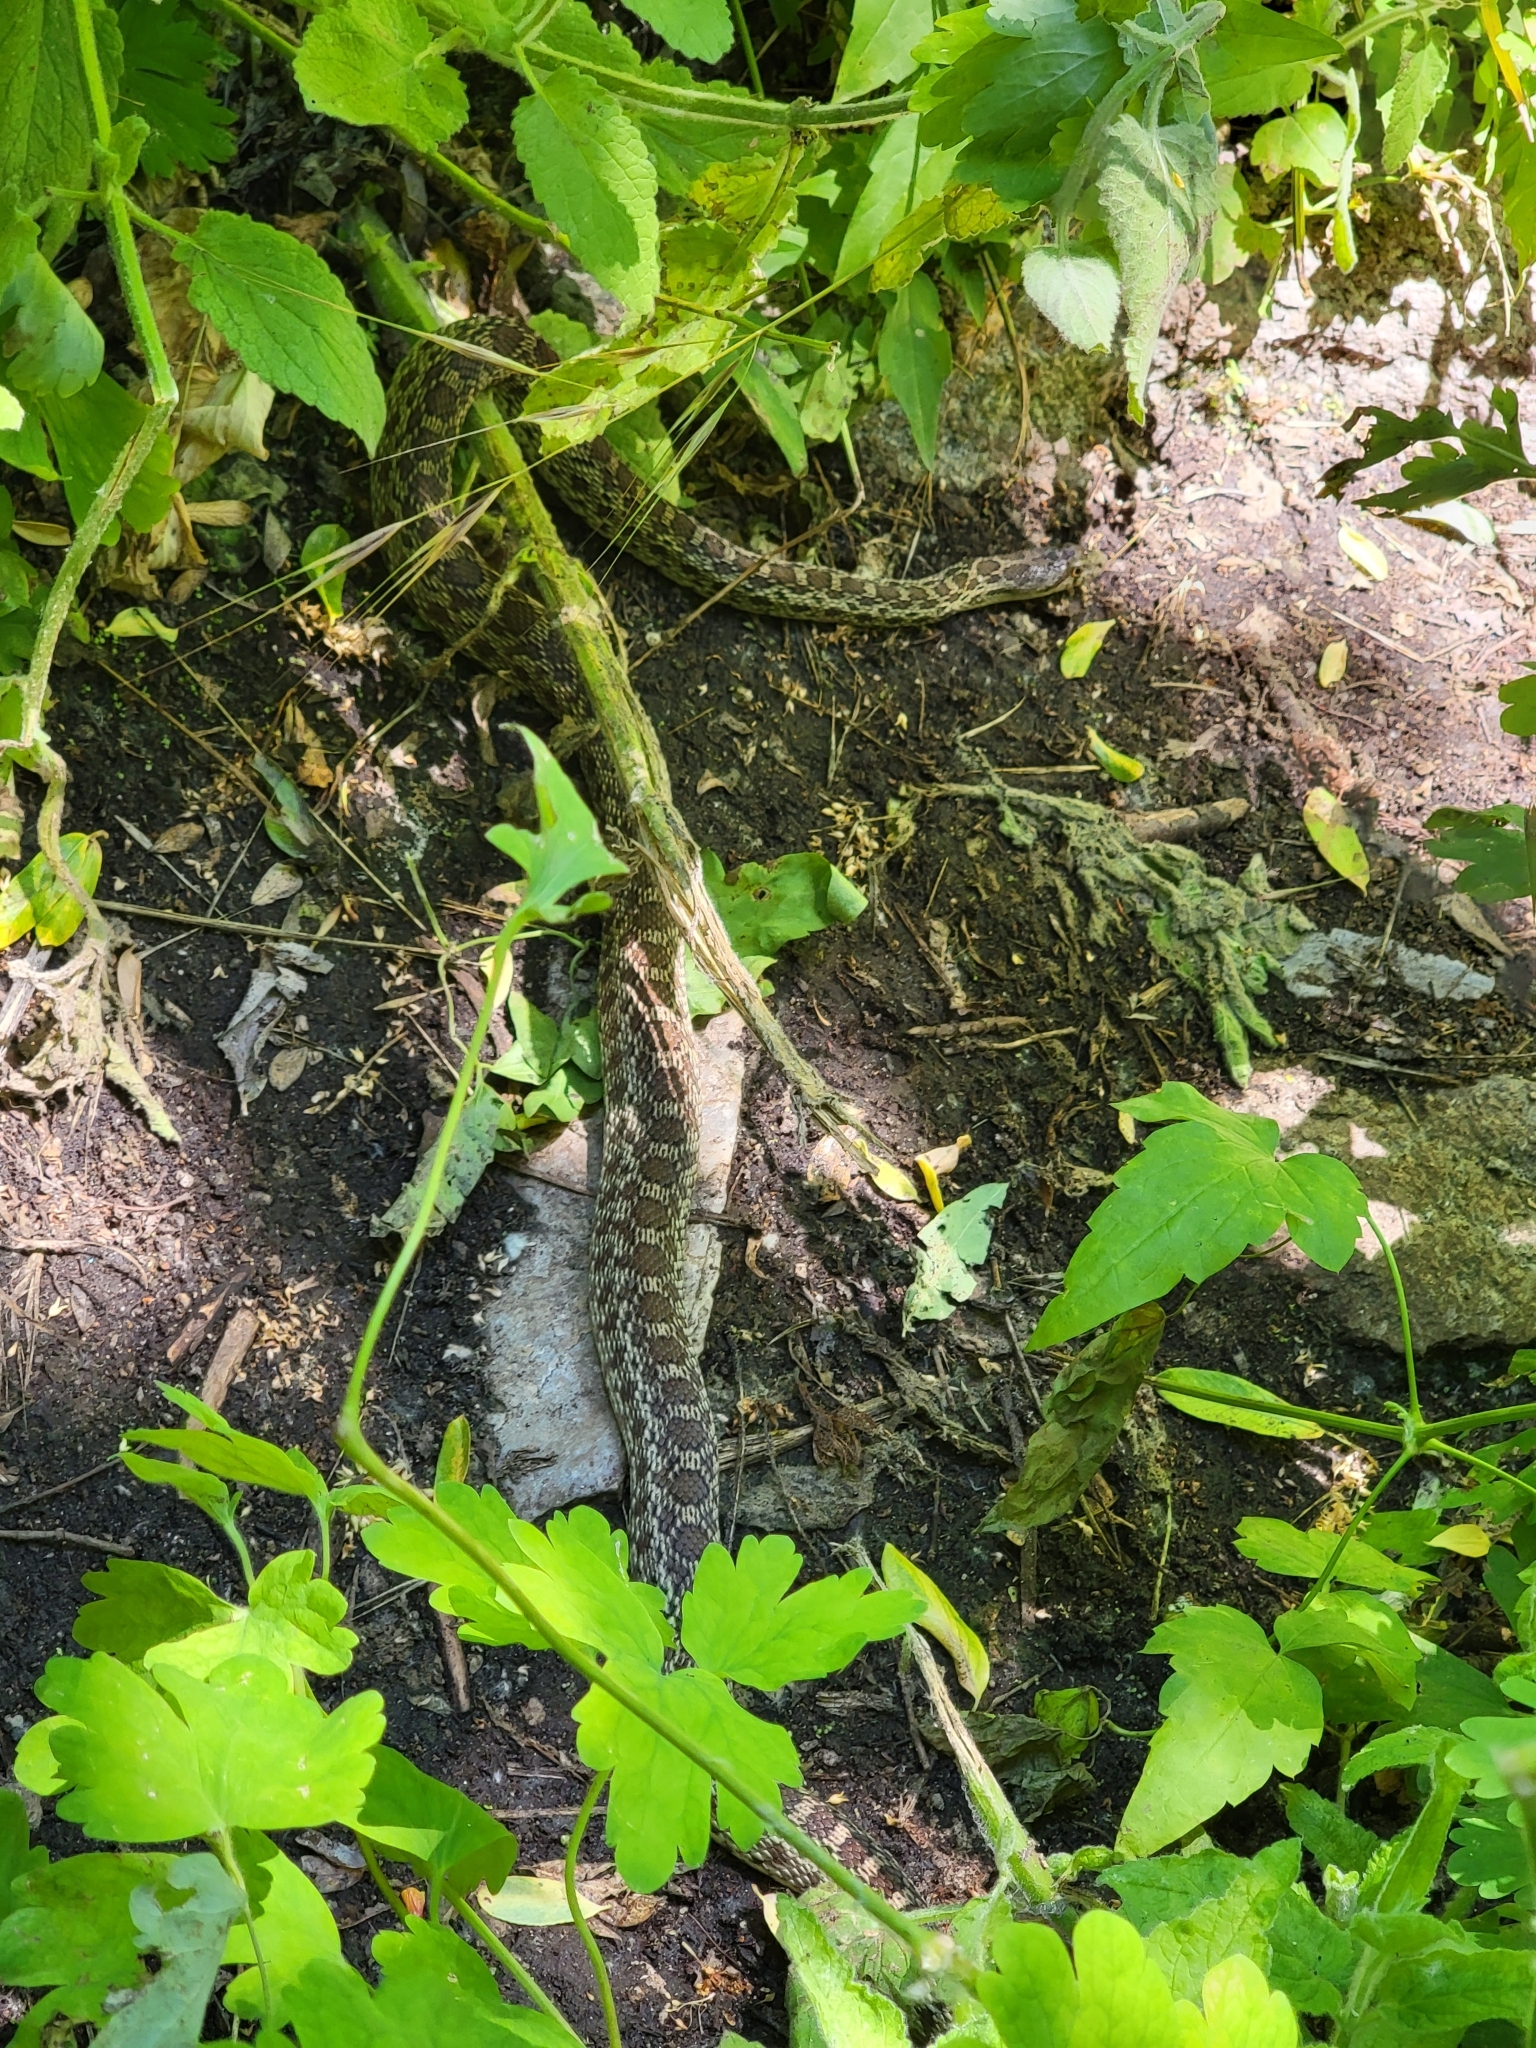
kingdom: Animalia
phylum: Chordata
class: Squamata
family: Colubridae
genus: Pituophis
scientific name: Pituophis catenifer
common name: Gopher snake
